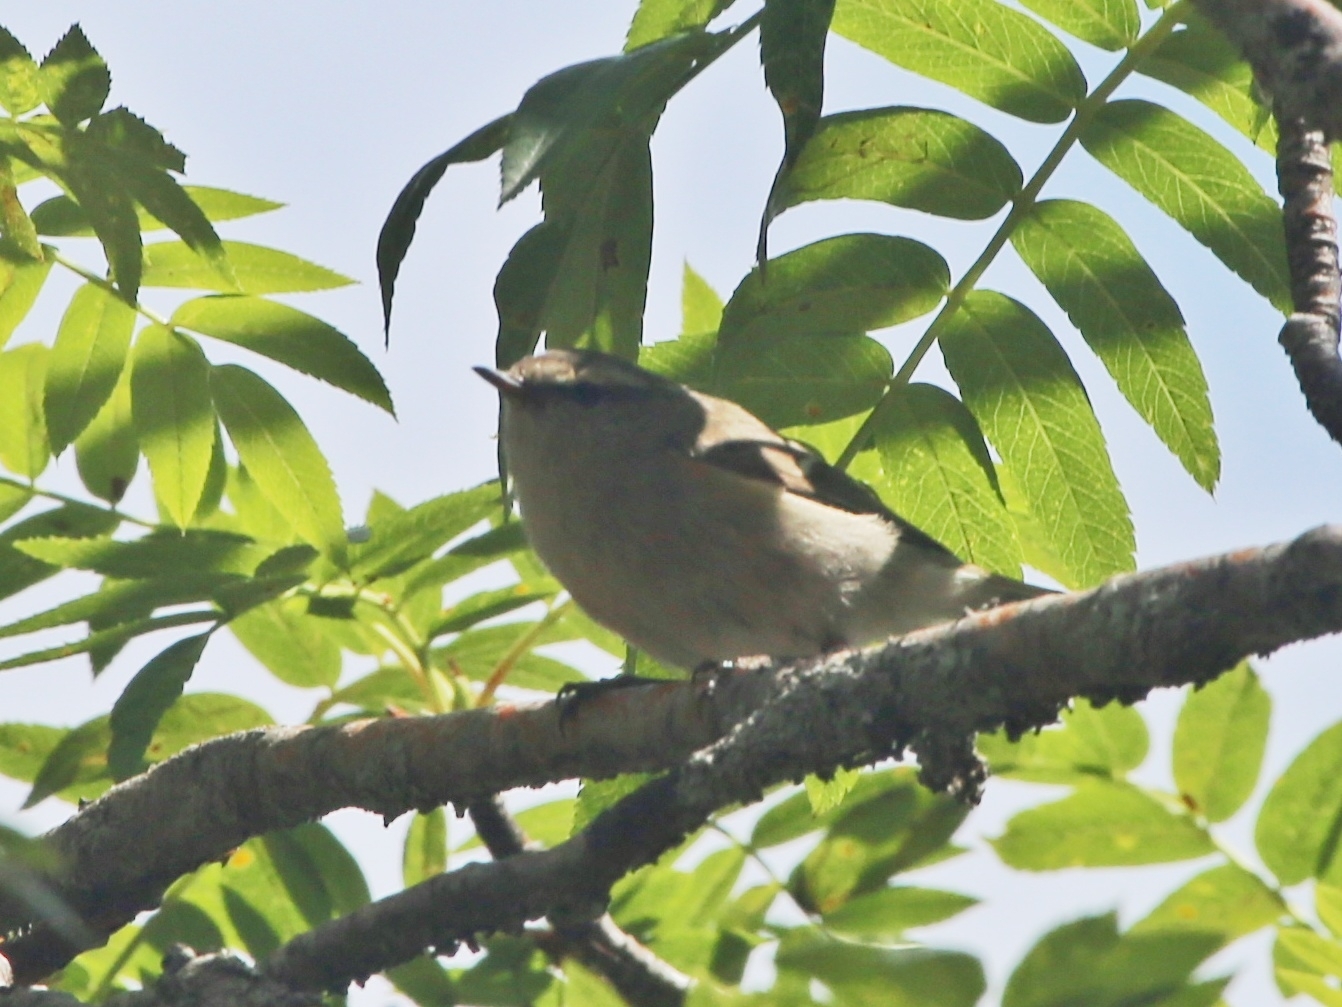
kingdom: Animalia
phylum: Chordata
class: Aves
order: Passeriformes
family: Phylloscopidae
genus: Phylloscopus
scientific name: Phylloscopus humei
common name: Hume's leaf warbler
